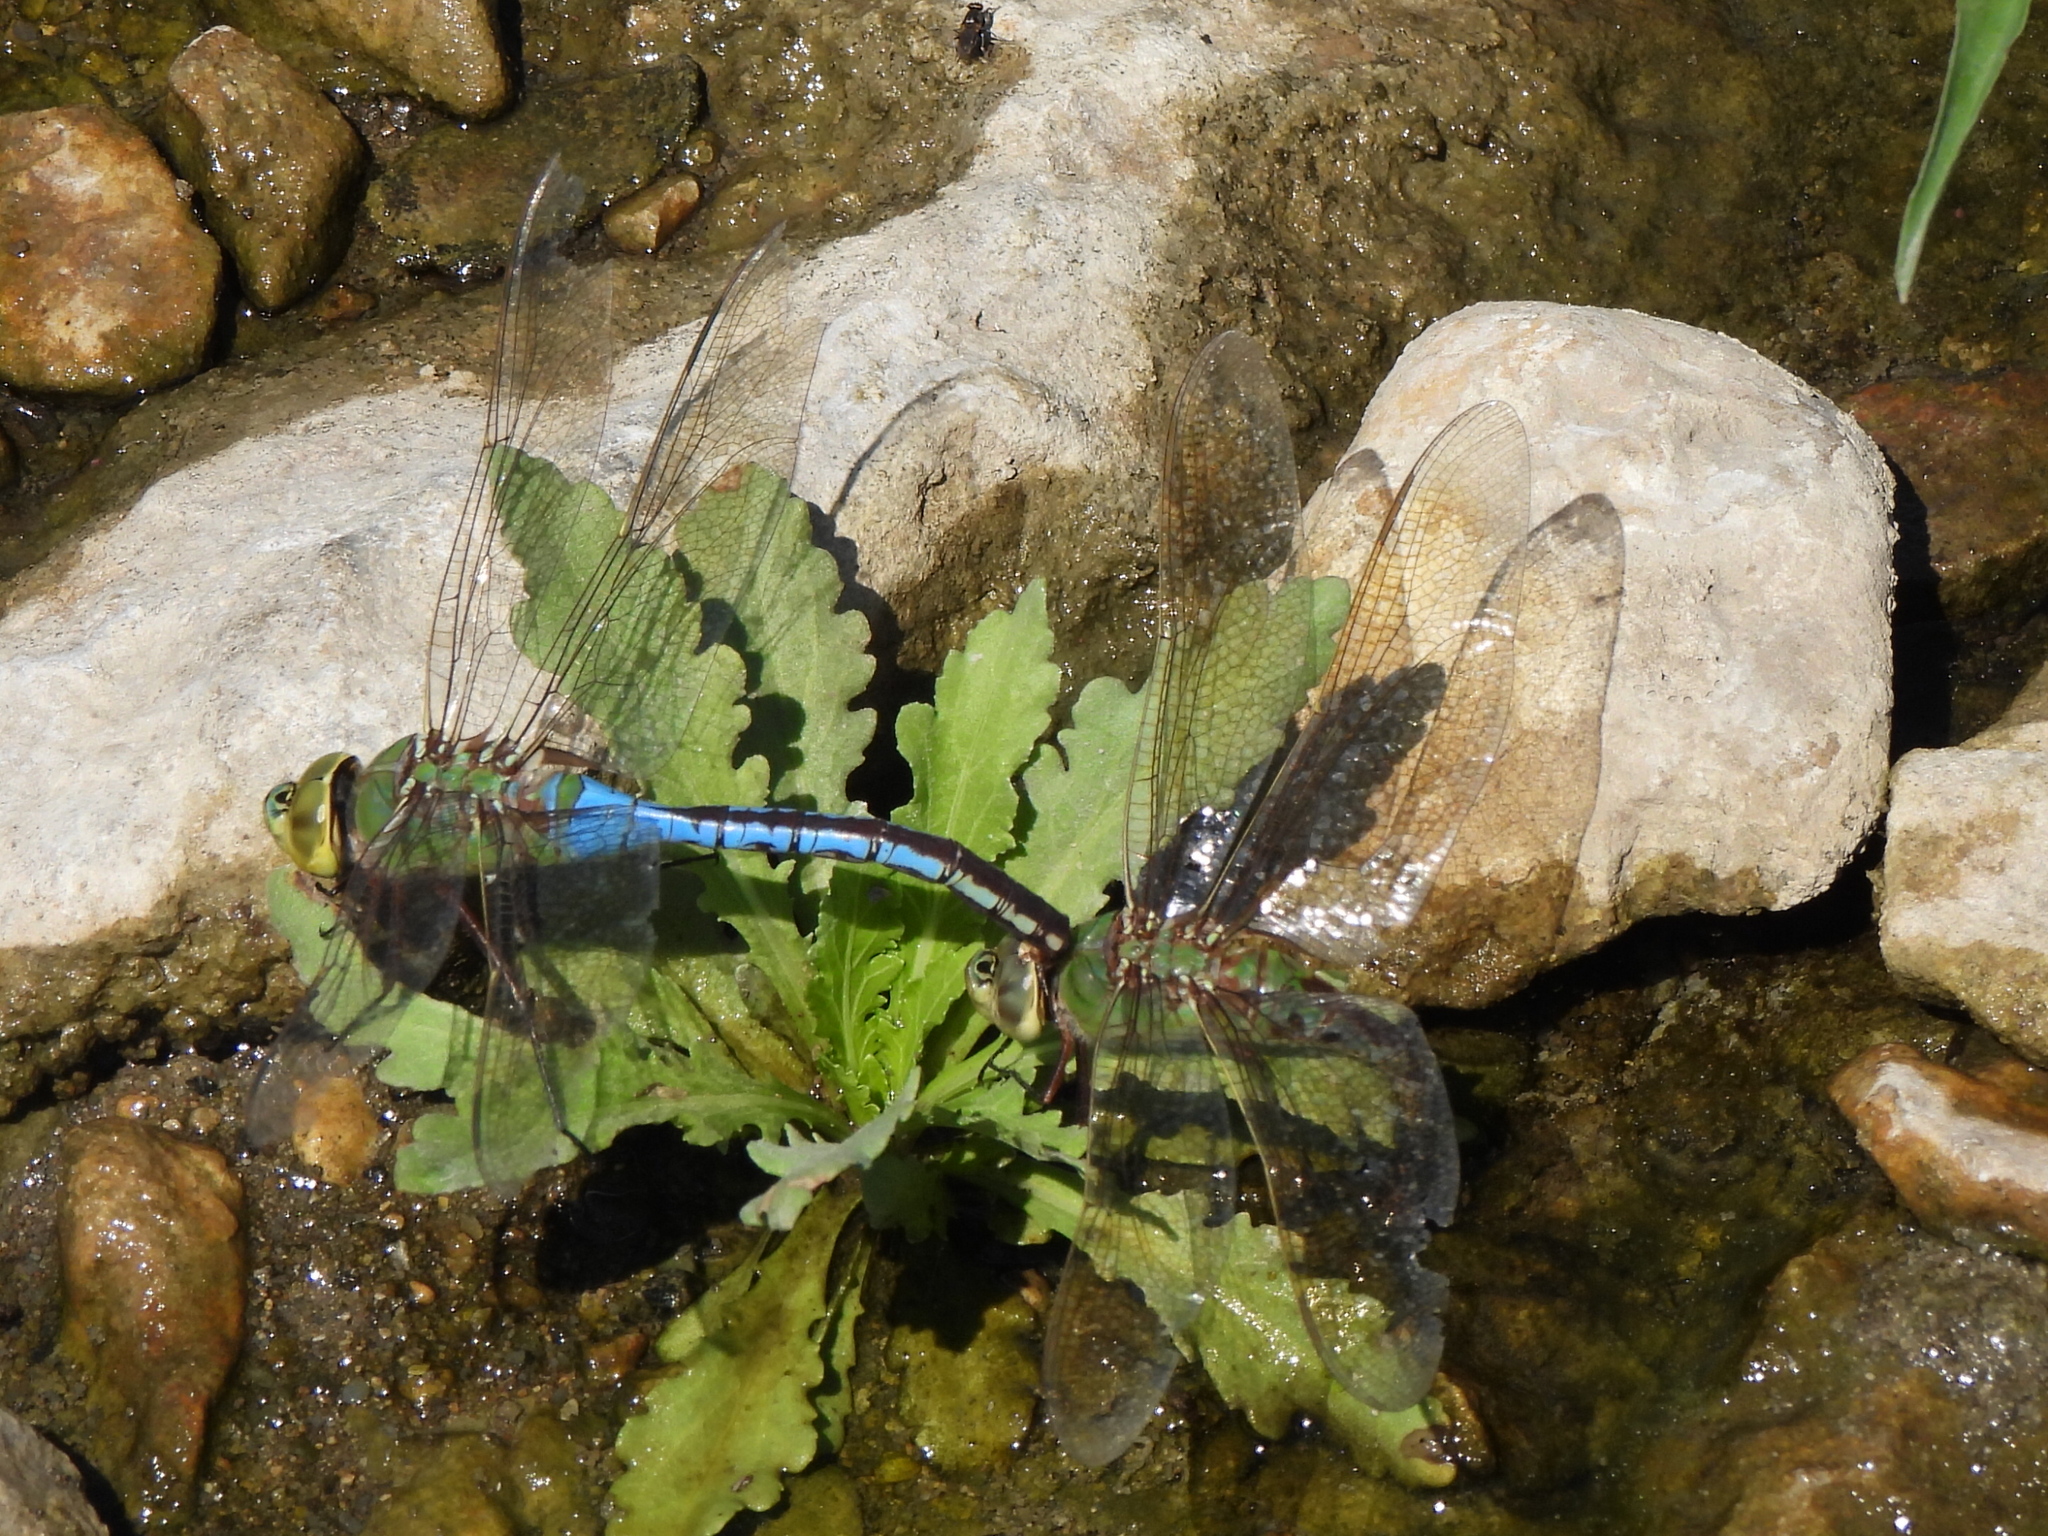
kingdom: Animalia
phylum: Arthropoda
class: Insecta
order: Odonata
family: Aeshnidae
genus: Anax
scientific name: Anax junius
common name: Common green darner
